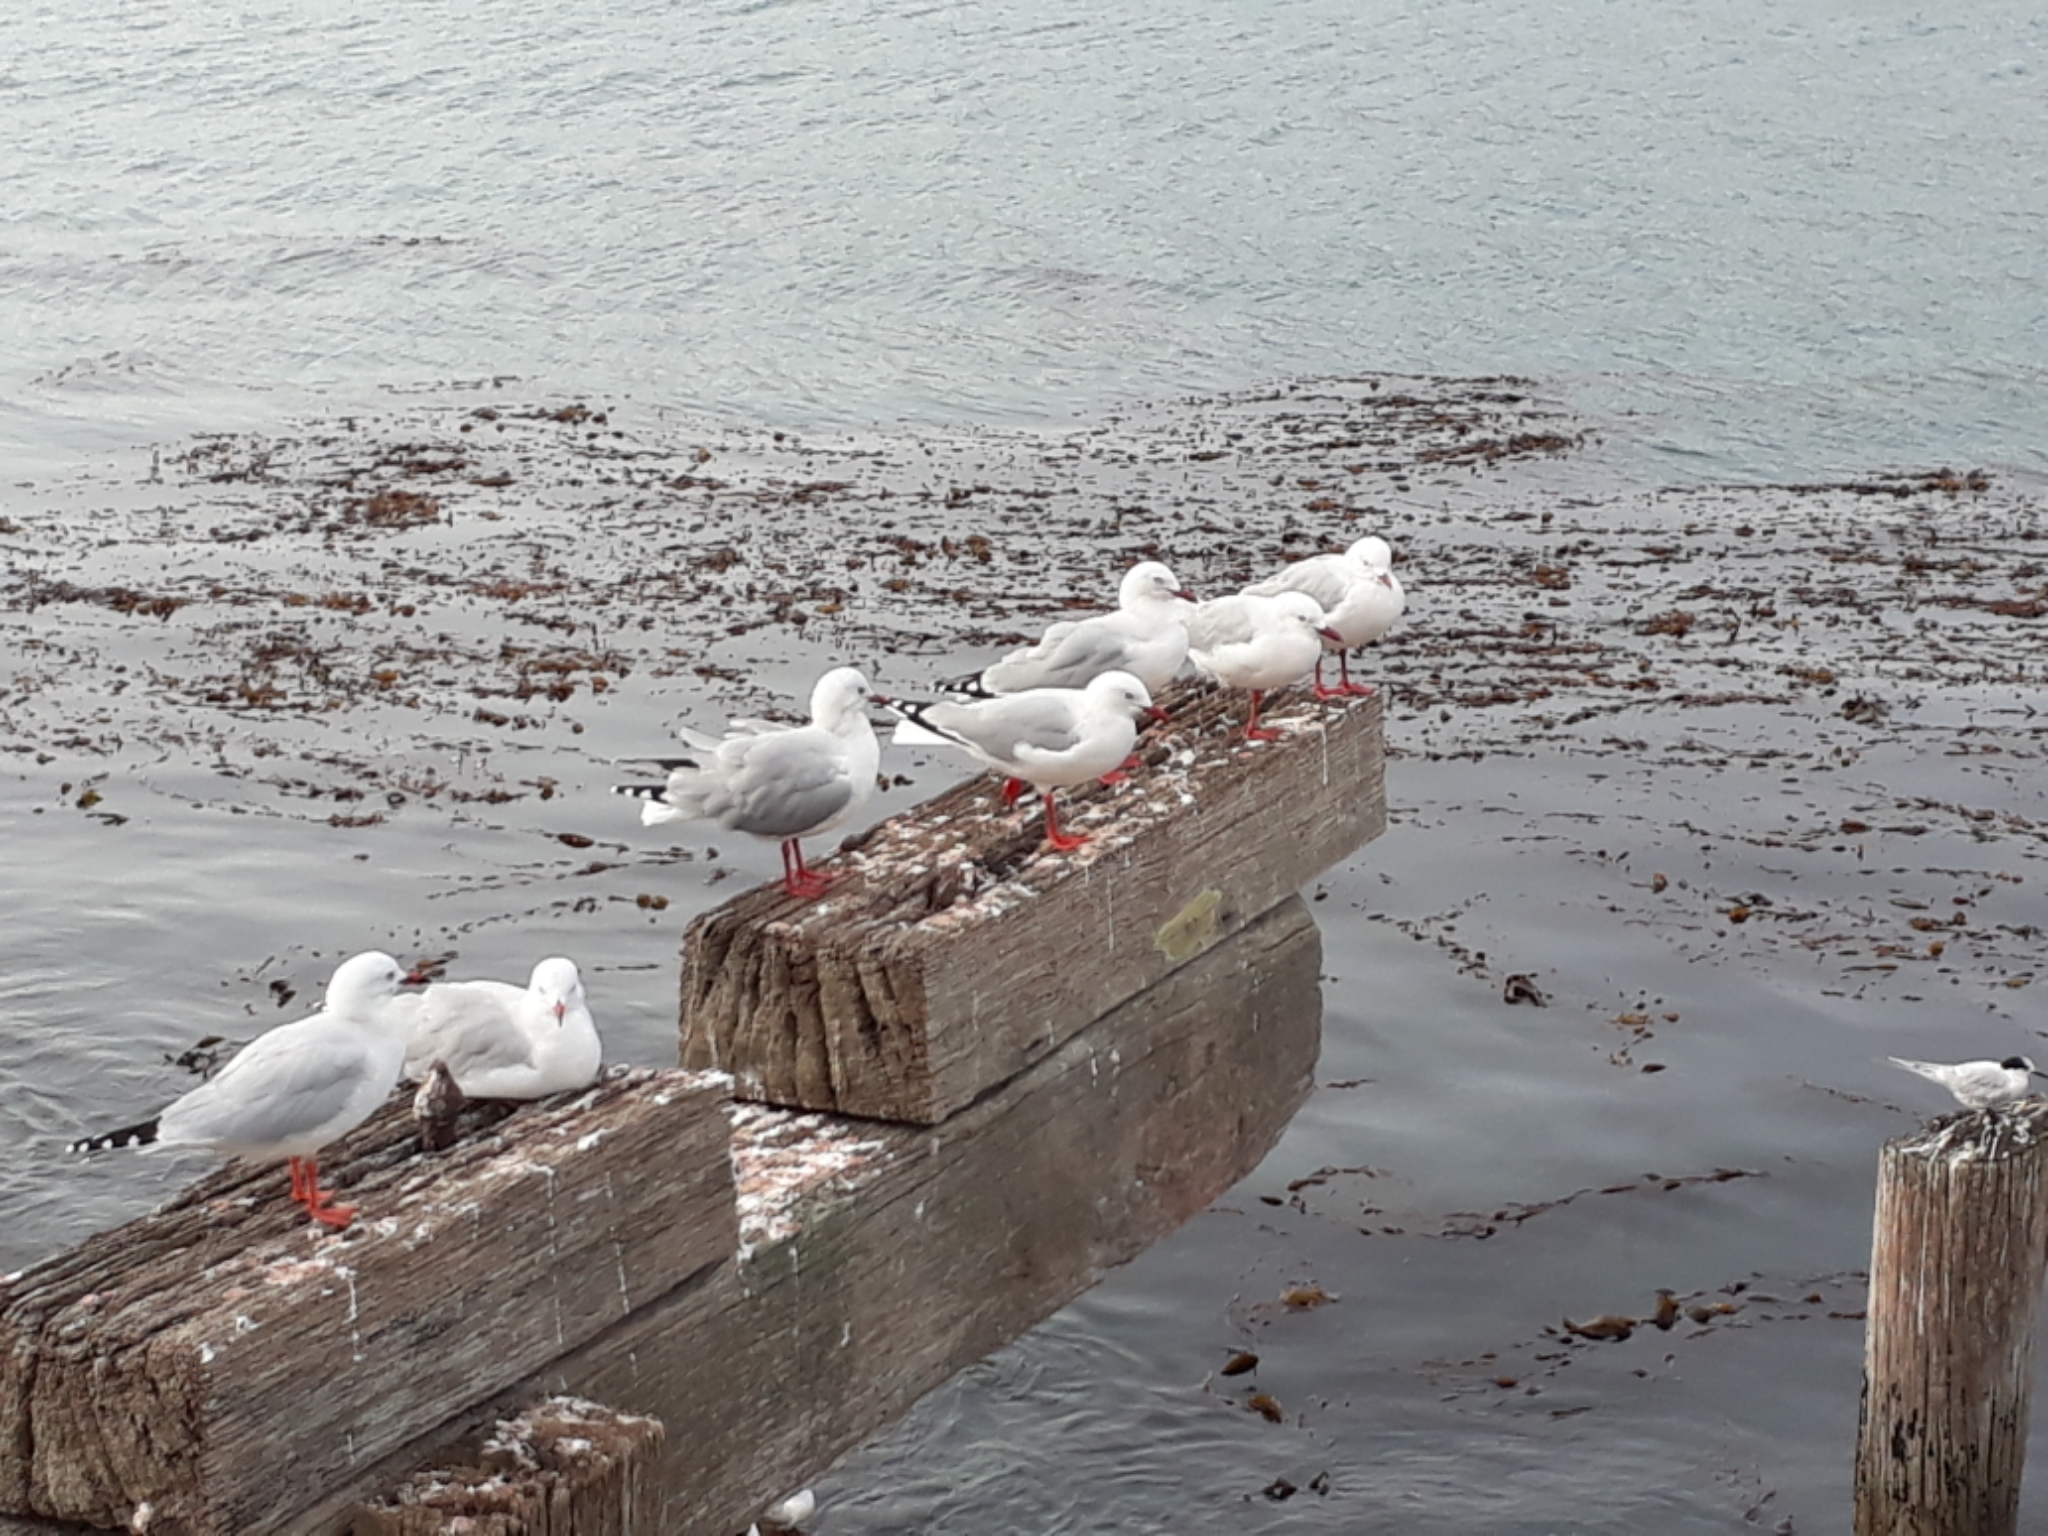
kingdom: Animalia
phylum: Chordata
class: Aves
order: Charadriiformes
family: Laridae
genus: Chroicocephalus
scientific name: Chroicocephalus novaehollandiae
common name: Silver gull
